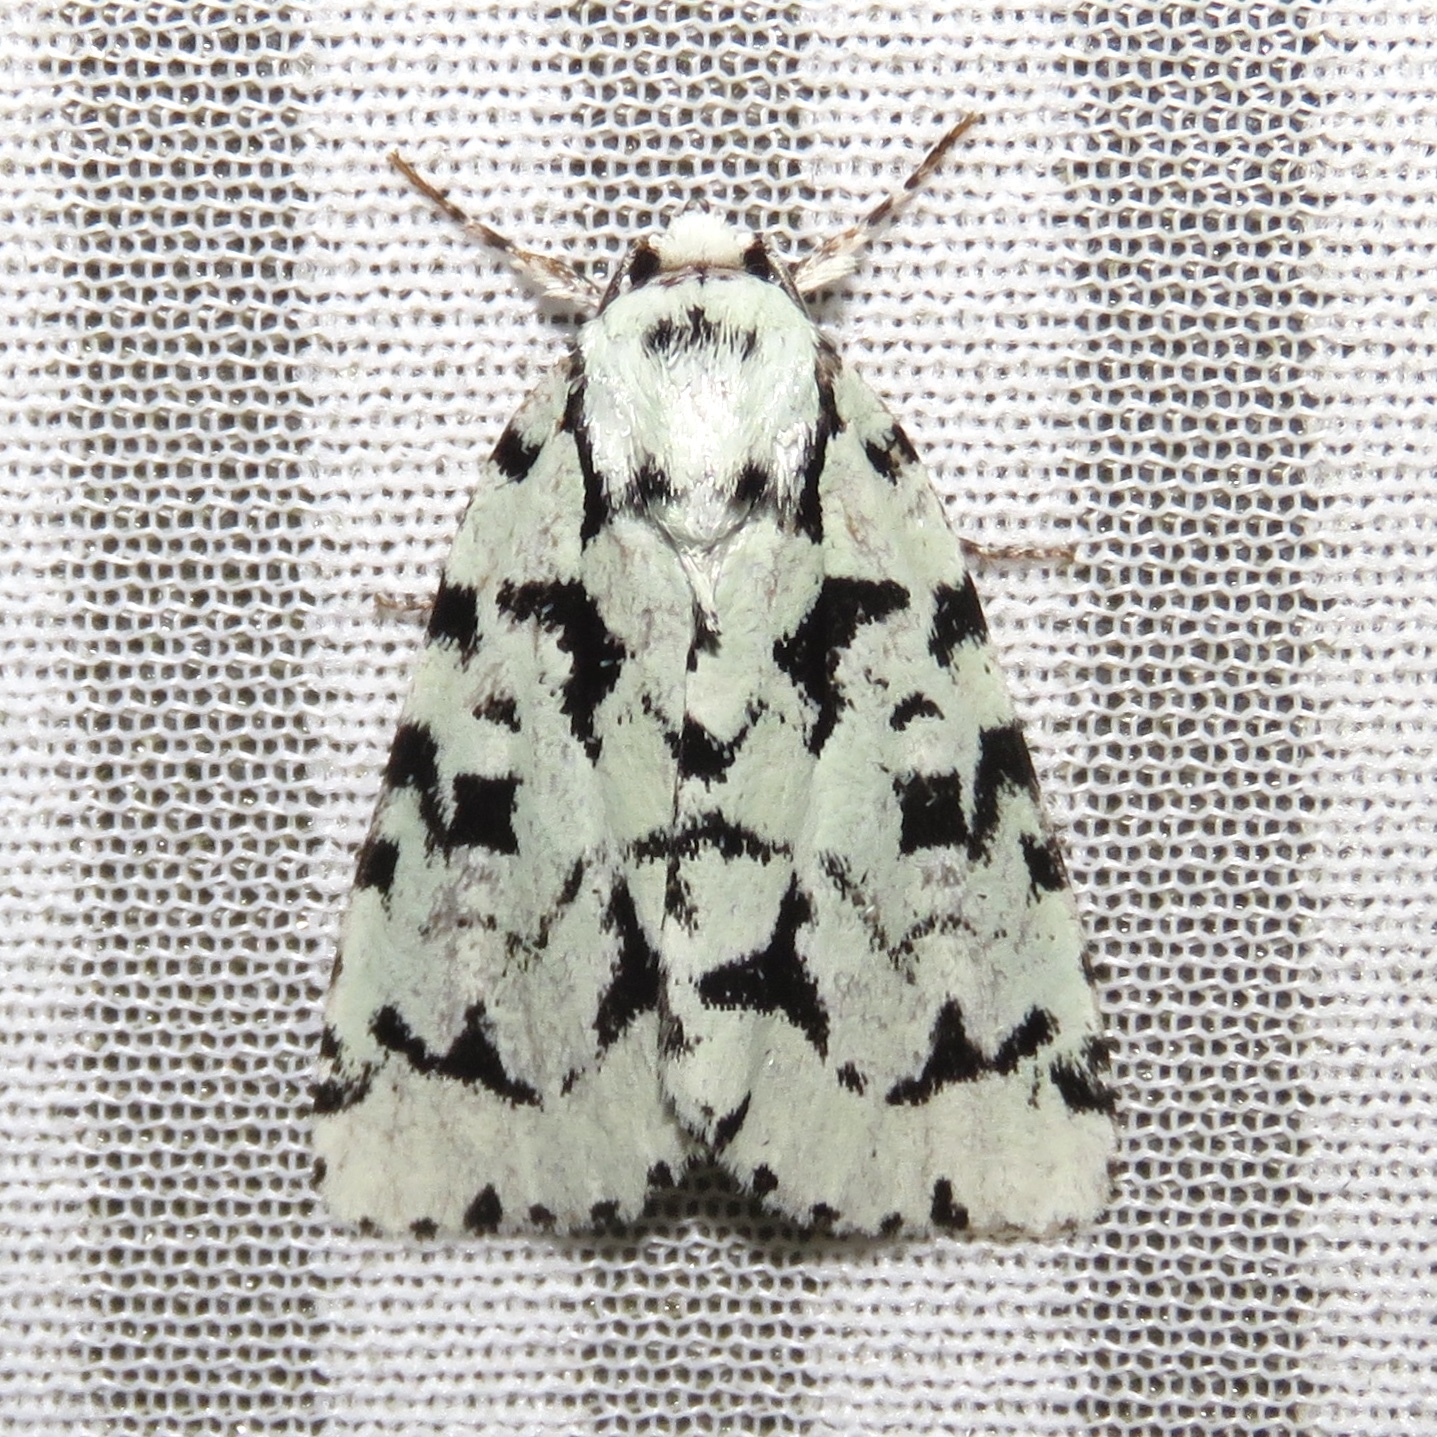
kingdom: Animalia
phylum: Arthropoda
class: Insecta
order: Lepidoptera
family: Noctuidae
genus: Acronicta
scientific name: Acronicta fallax
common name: Green marvel
